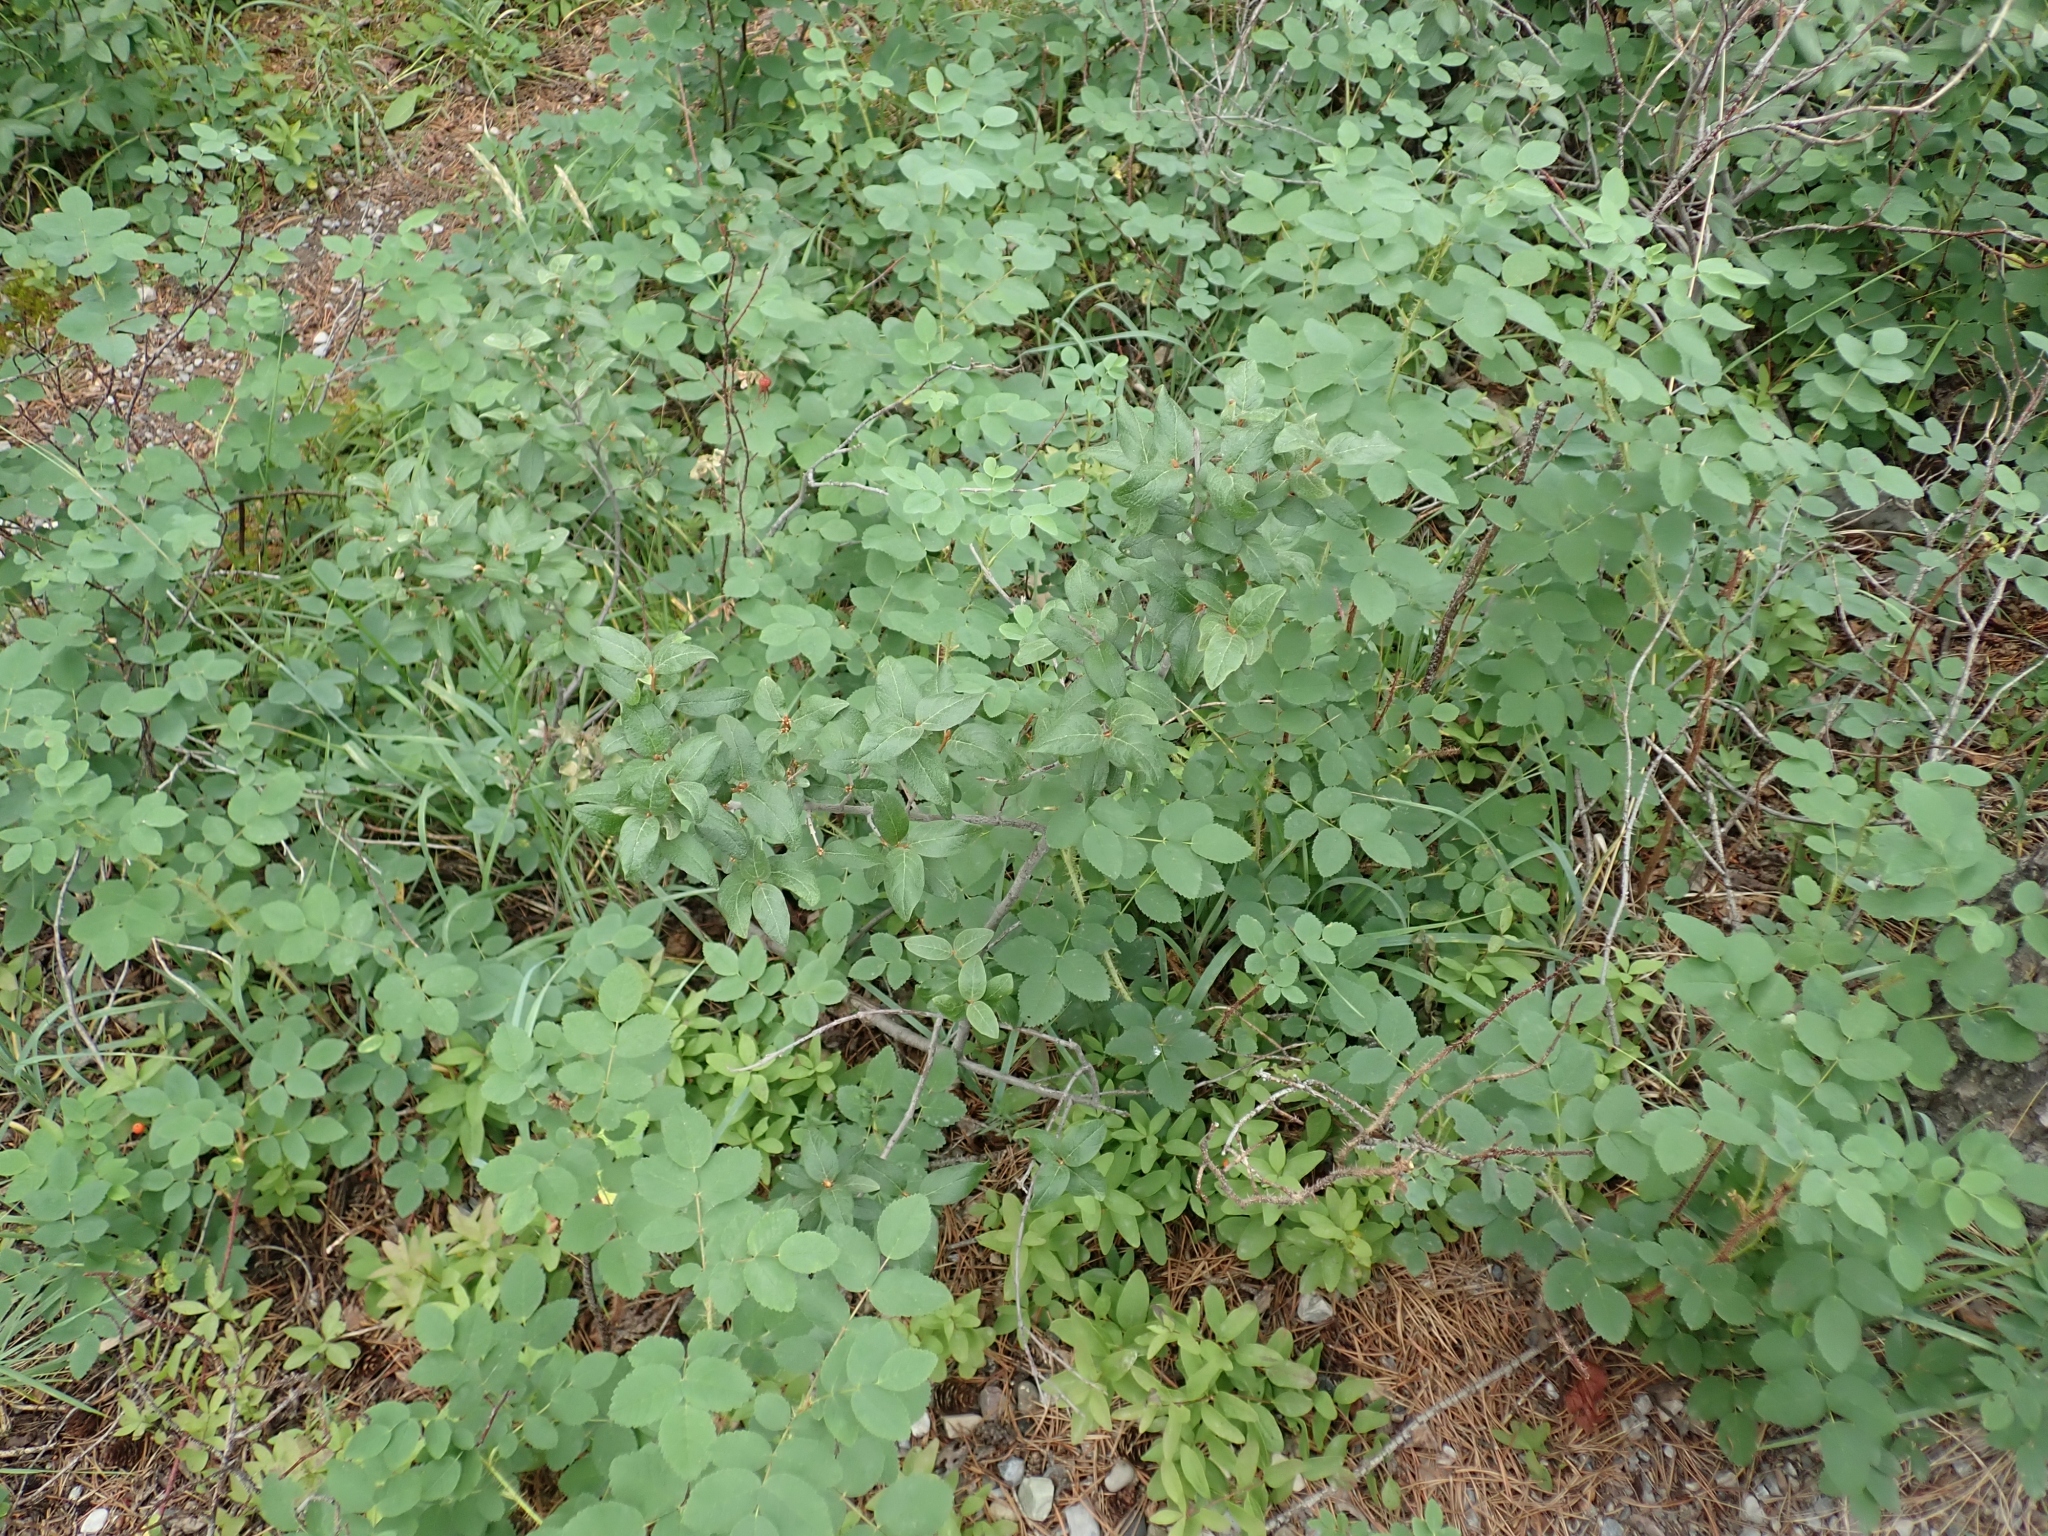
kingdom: Plantae
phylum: Tracheophyta
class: Magnoliopsida
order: Rosales
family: Elaeagnaceae
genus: Shepherdia
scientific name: Shepherdia canadensis
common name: Soapberry
